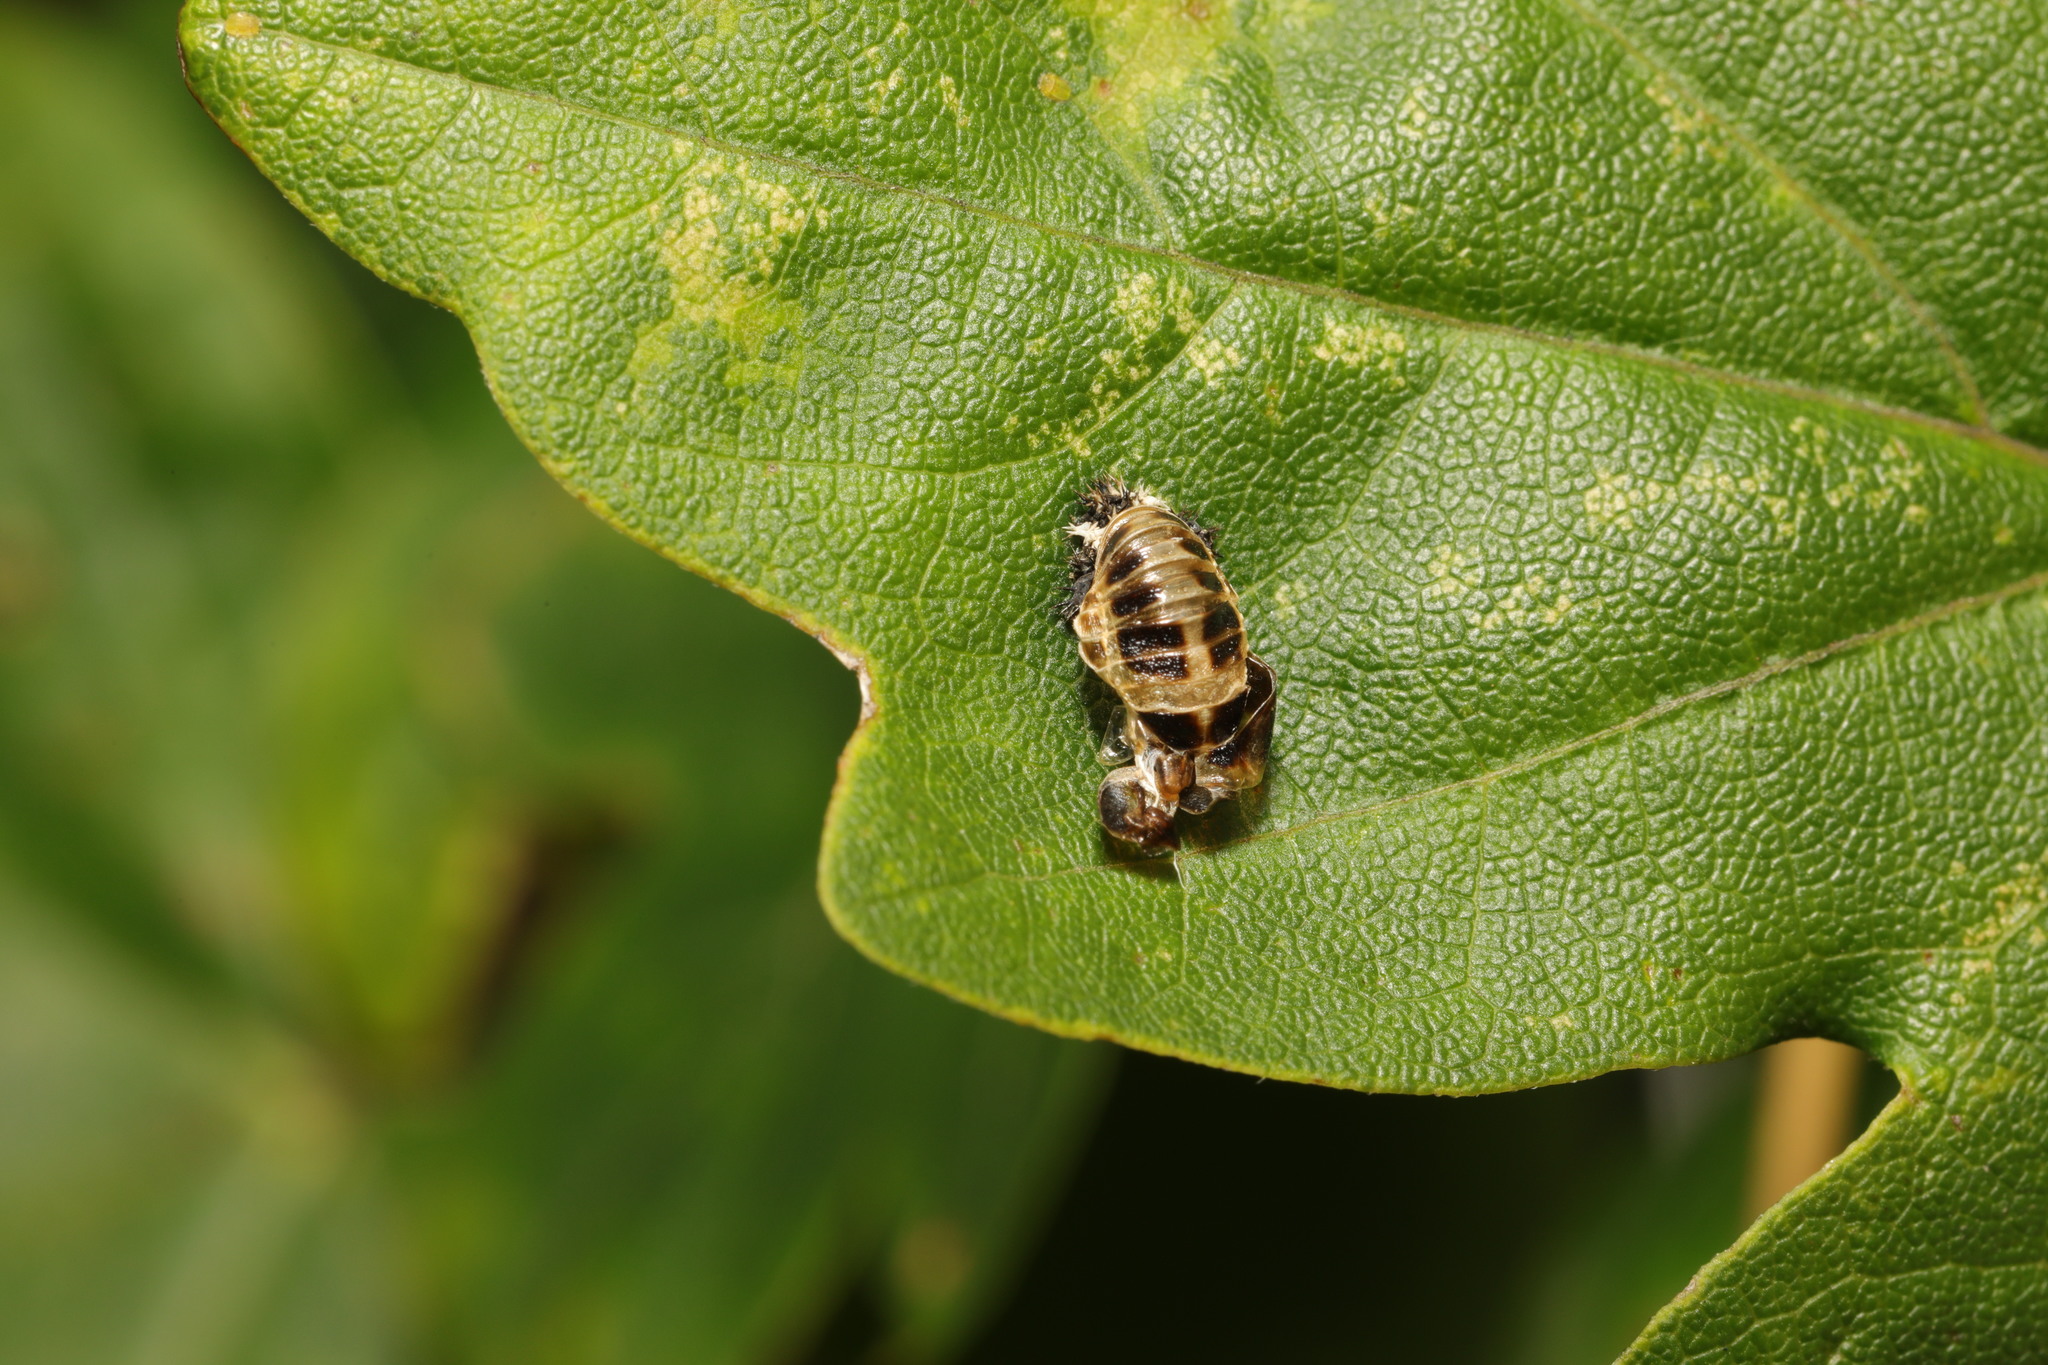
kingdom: Animalia
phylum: Arthropoda
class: Insecta
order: Coleoptera
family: Coccinellidae
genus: Harmonia
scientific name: Harmonia axyridis
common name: Harlequin ladybird
